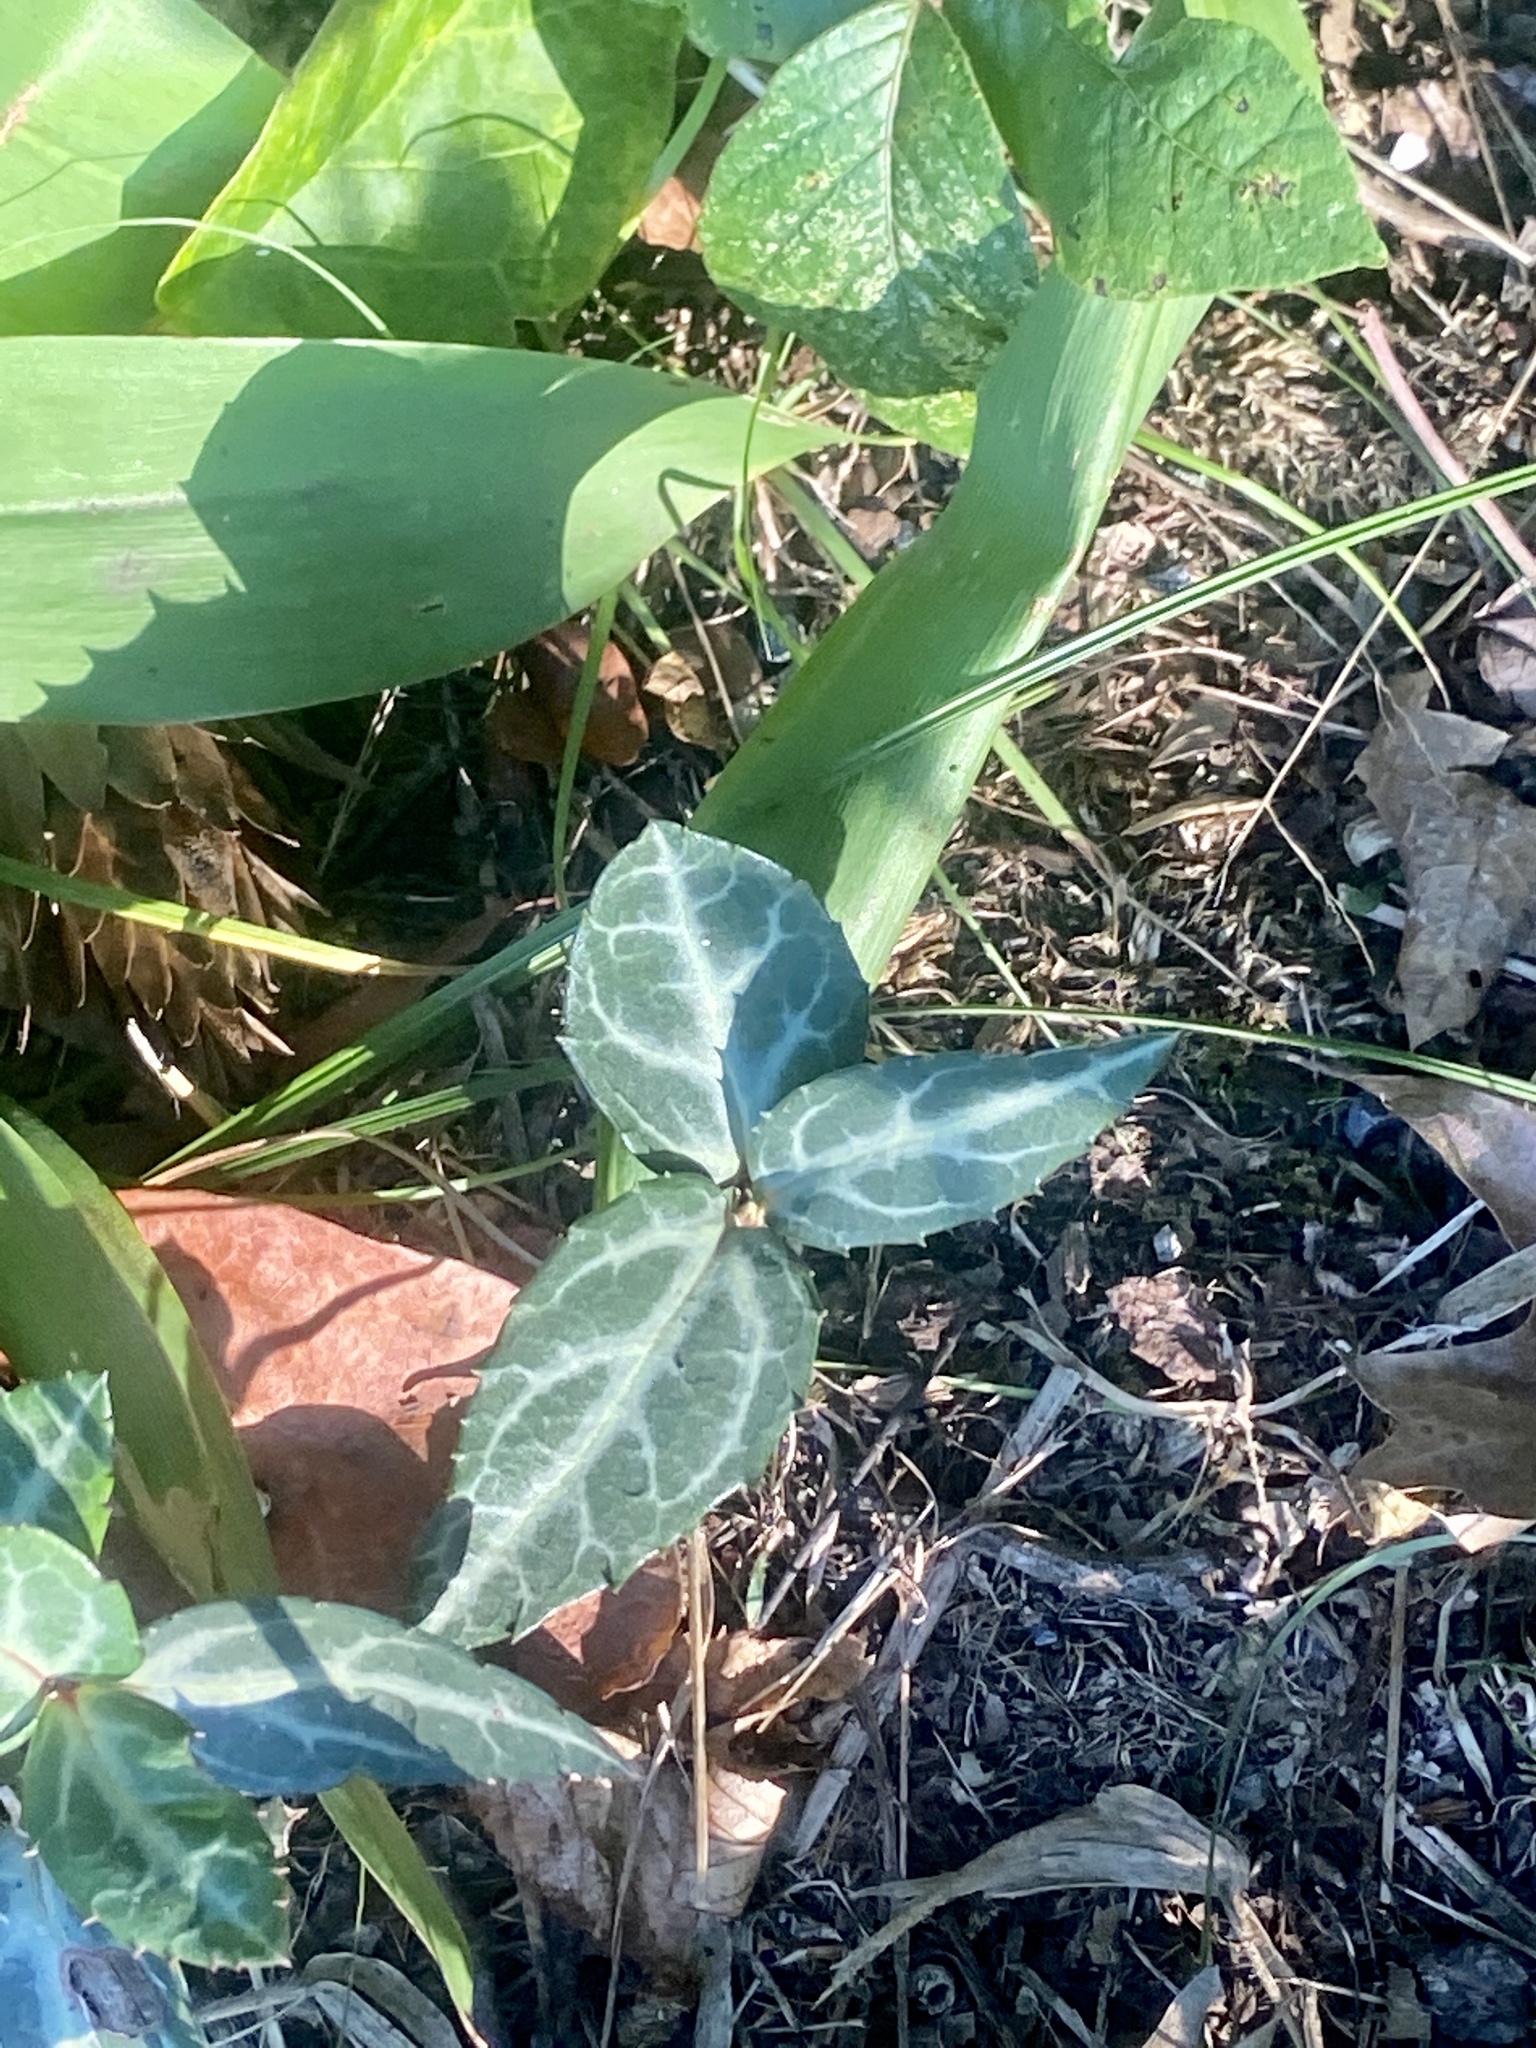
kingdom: Plantae
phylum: Tracheophyta
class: Magnoliopsida
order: Ericales
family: Ericaceae
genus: Chimaphila
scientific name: Chimaphila maculata
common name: Spotted pipsissewa
